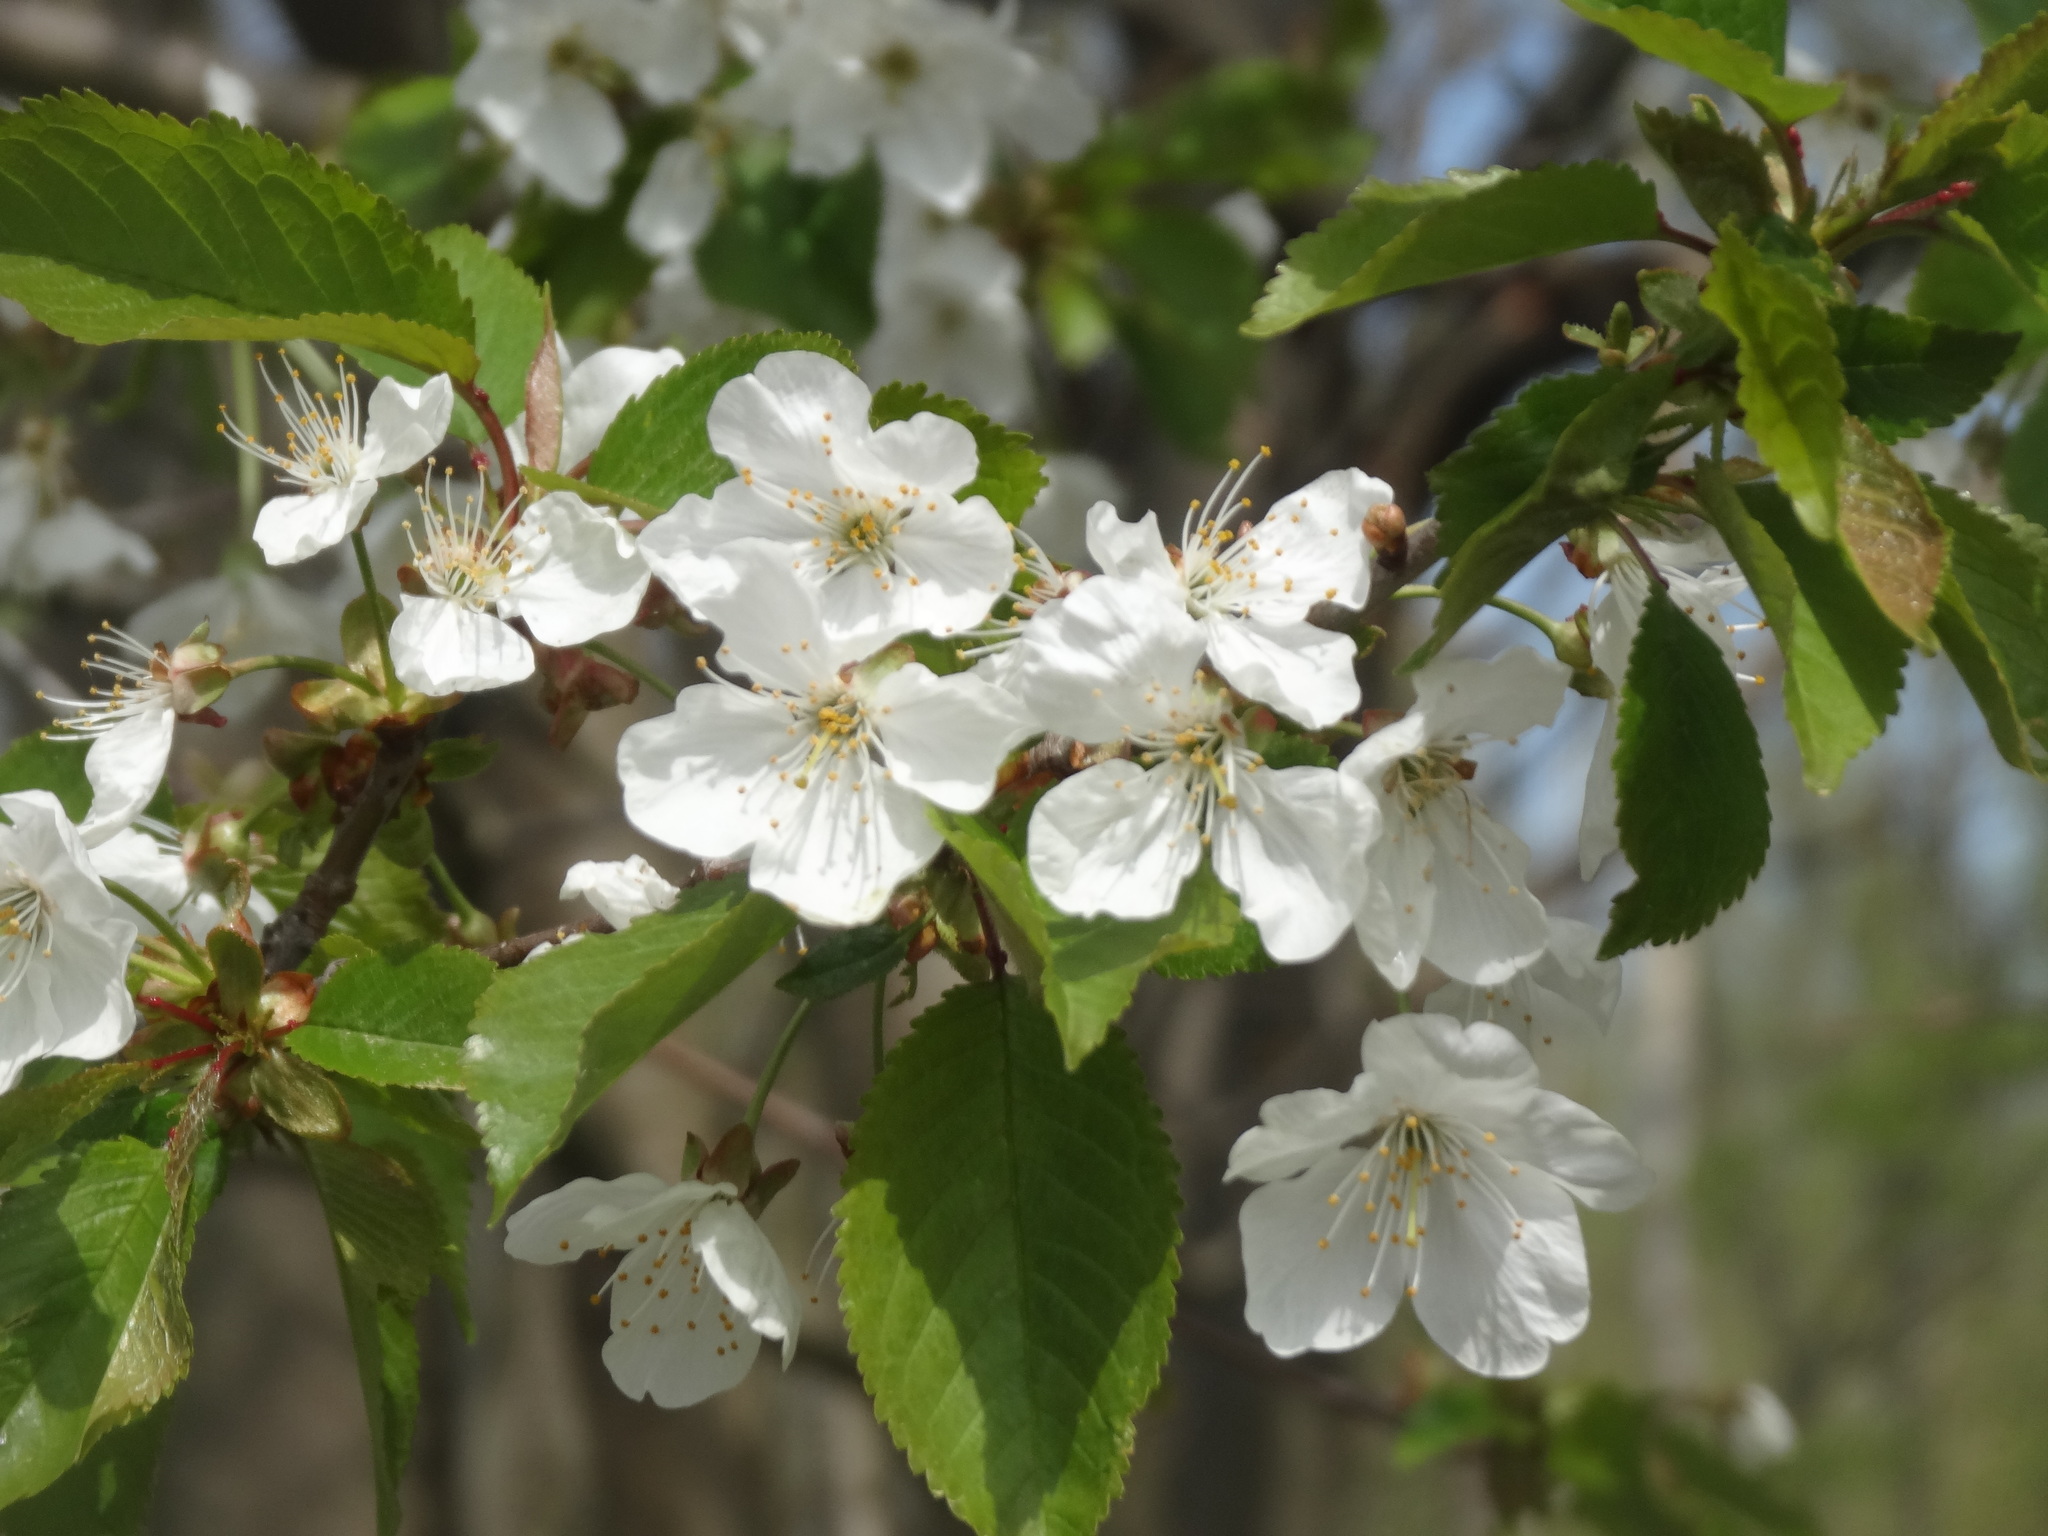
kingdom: Plantae
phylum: Tracheophyta
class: Magnoliopsida
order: Rosales
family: Rosaceae
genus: Prunus
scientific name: Prunus avium
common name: Sweet cherry
